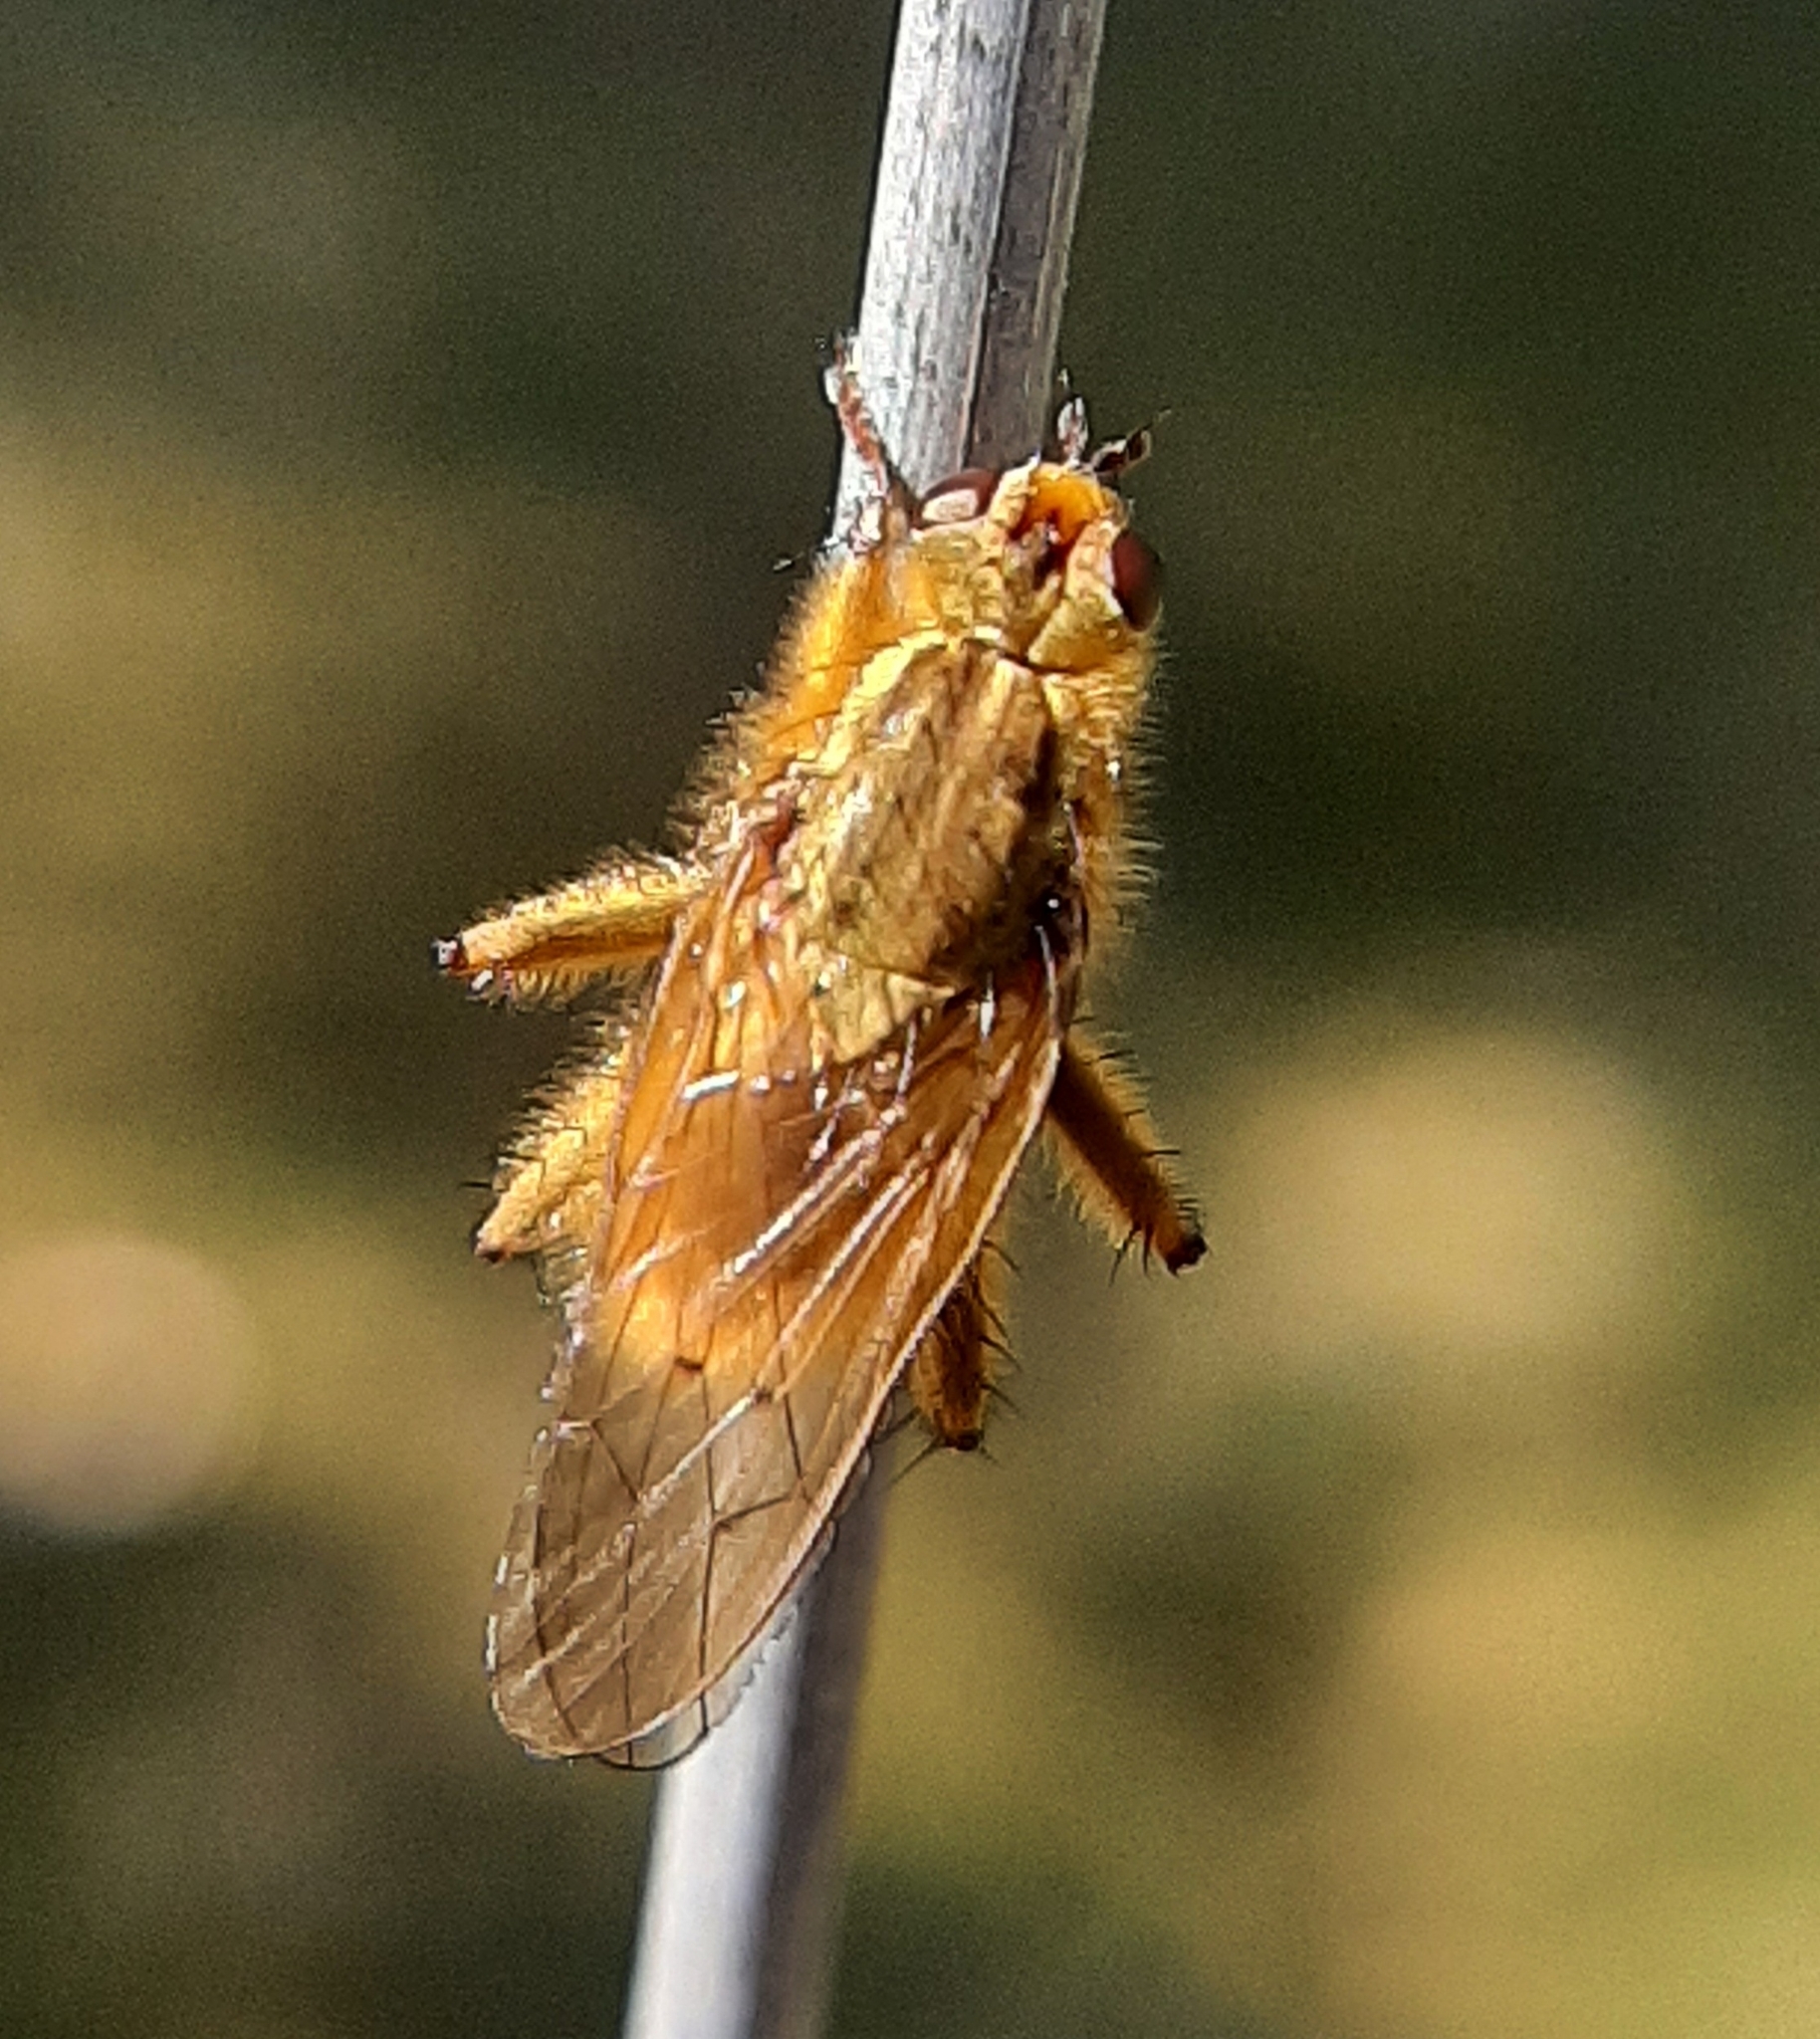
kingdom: Animalia
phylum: Arthropoda
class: Insecta
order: Diptera
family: Scathophagidae
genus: Scathophaga
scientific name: Scathophaga stercoraria
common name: Yellow dung fly
